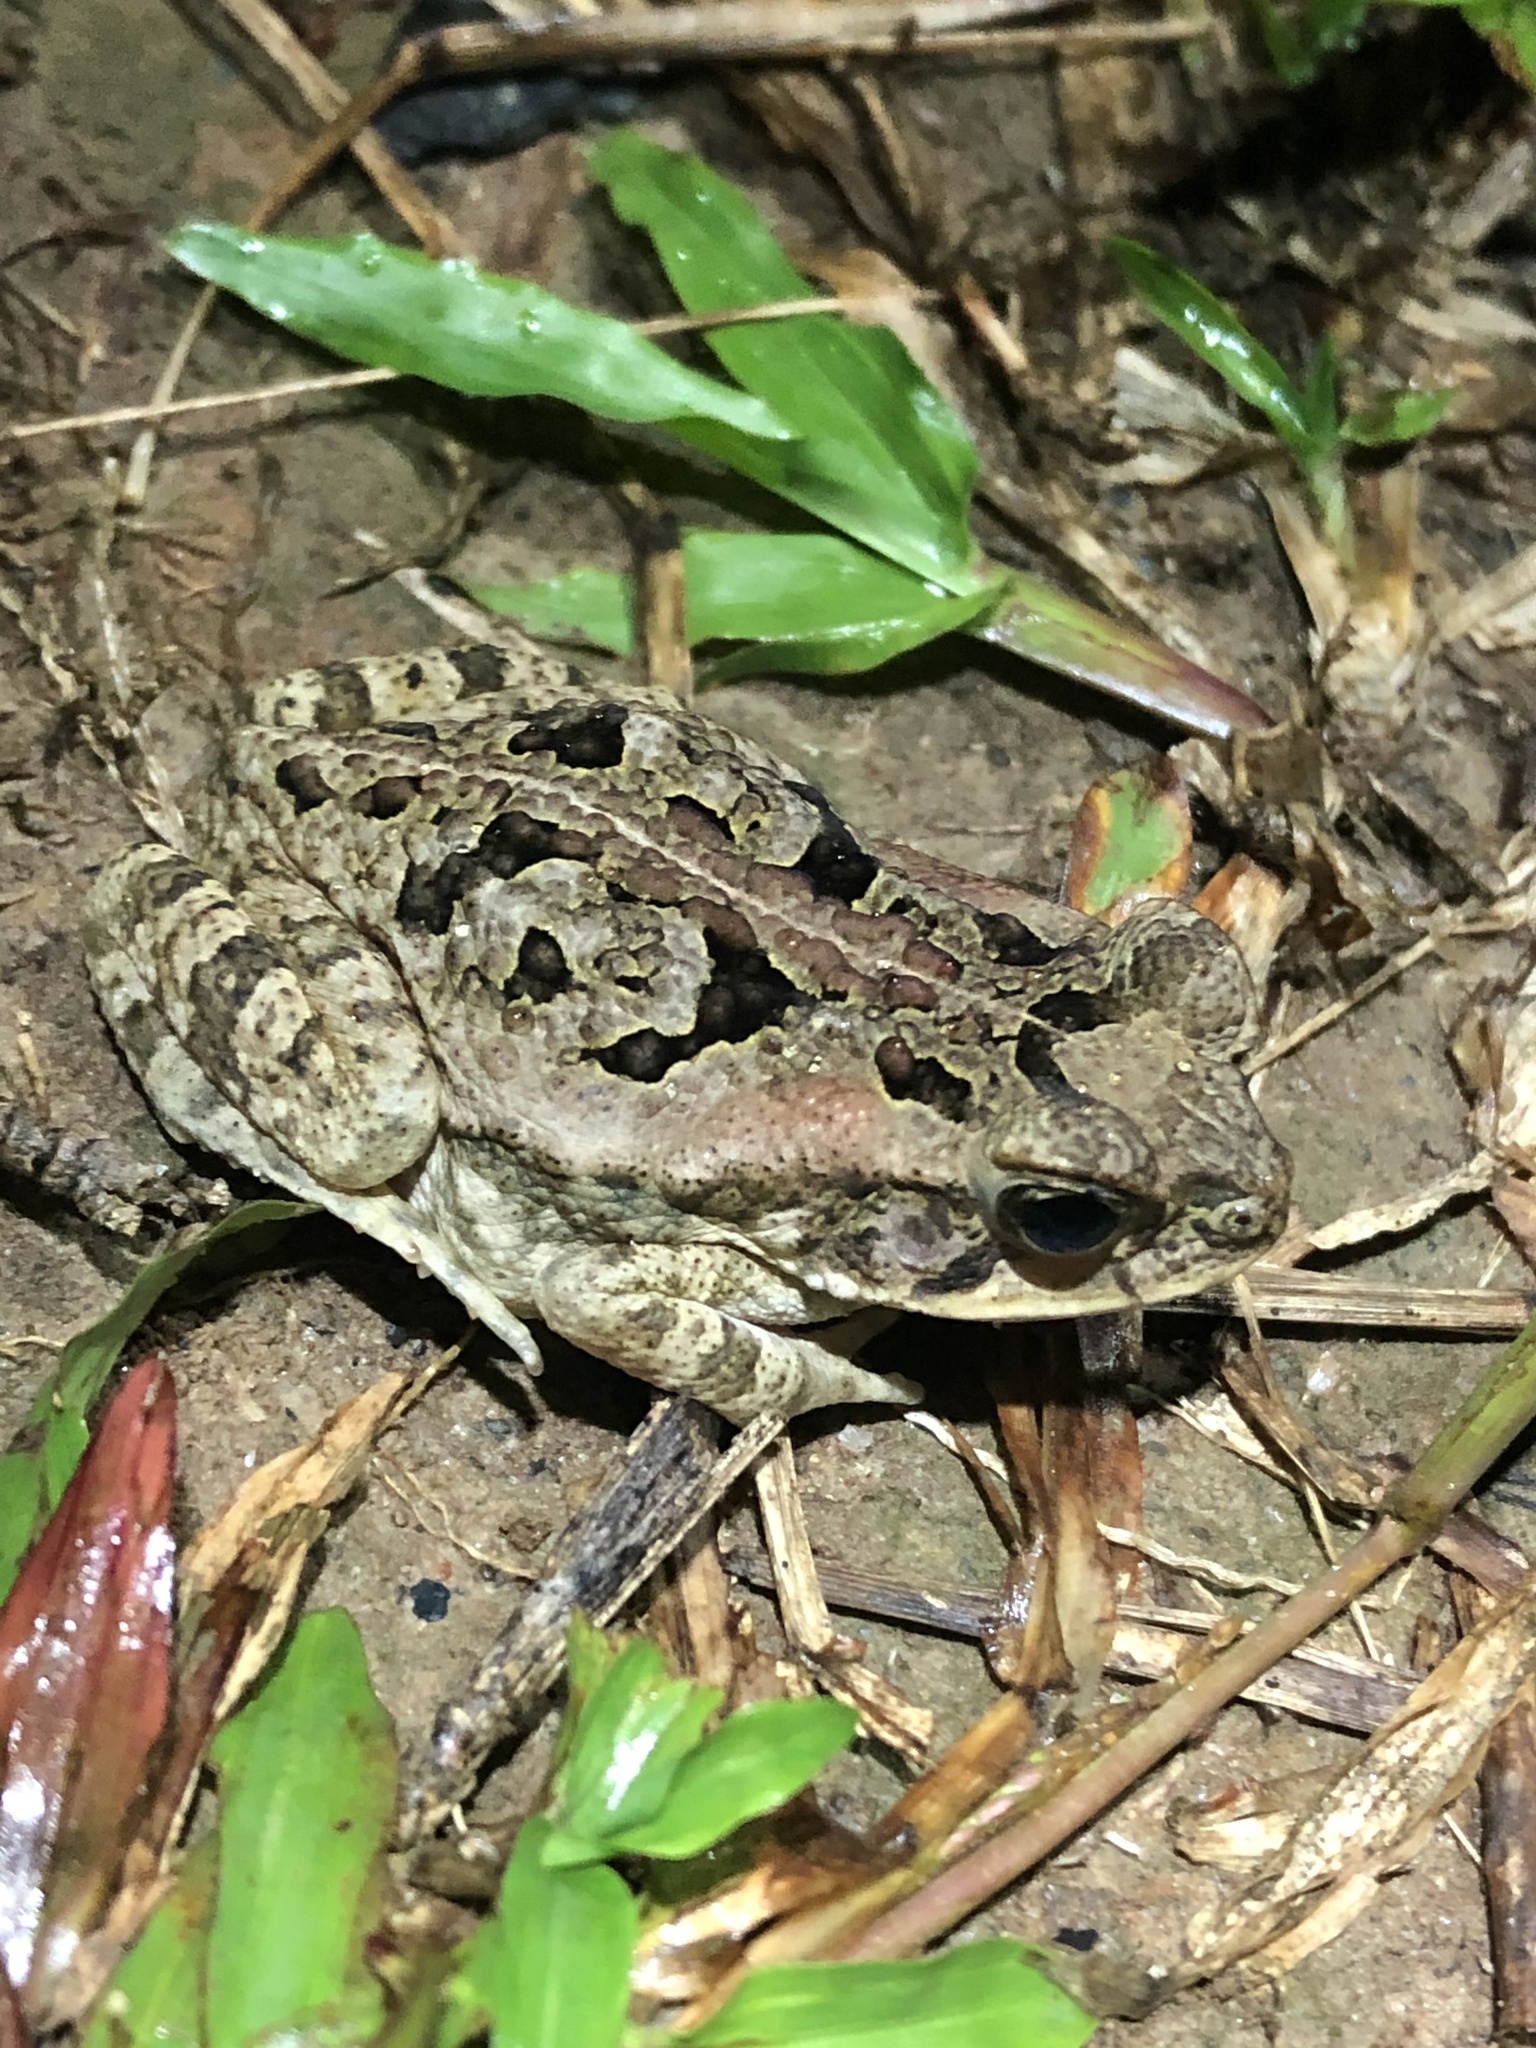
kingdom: Animalia
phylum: Chordata
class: Amphibia
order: Anura
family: Bufonidae
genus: Rhinella
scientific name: Rhinella marina
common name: Cane toad
